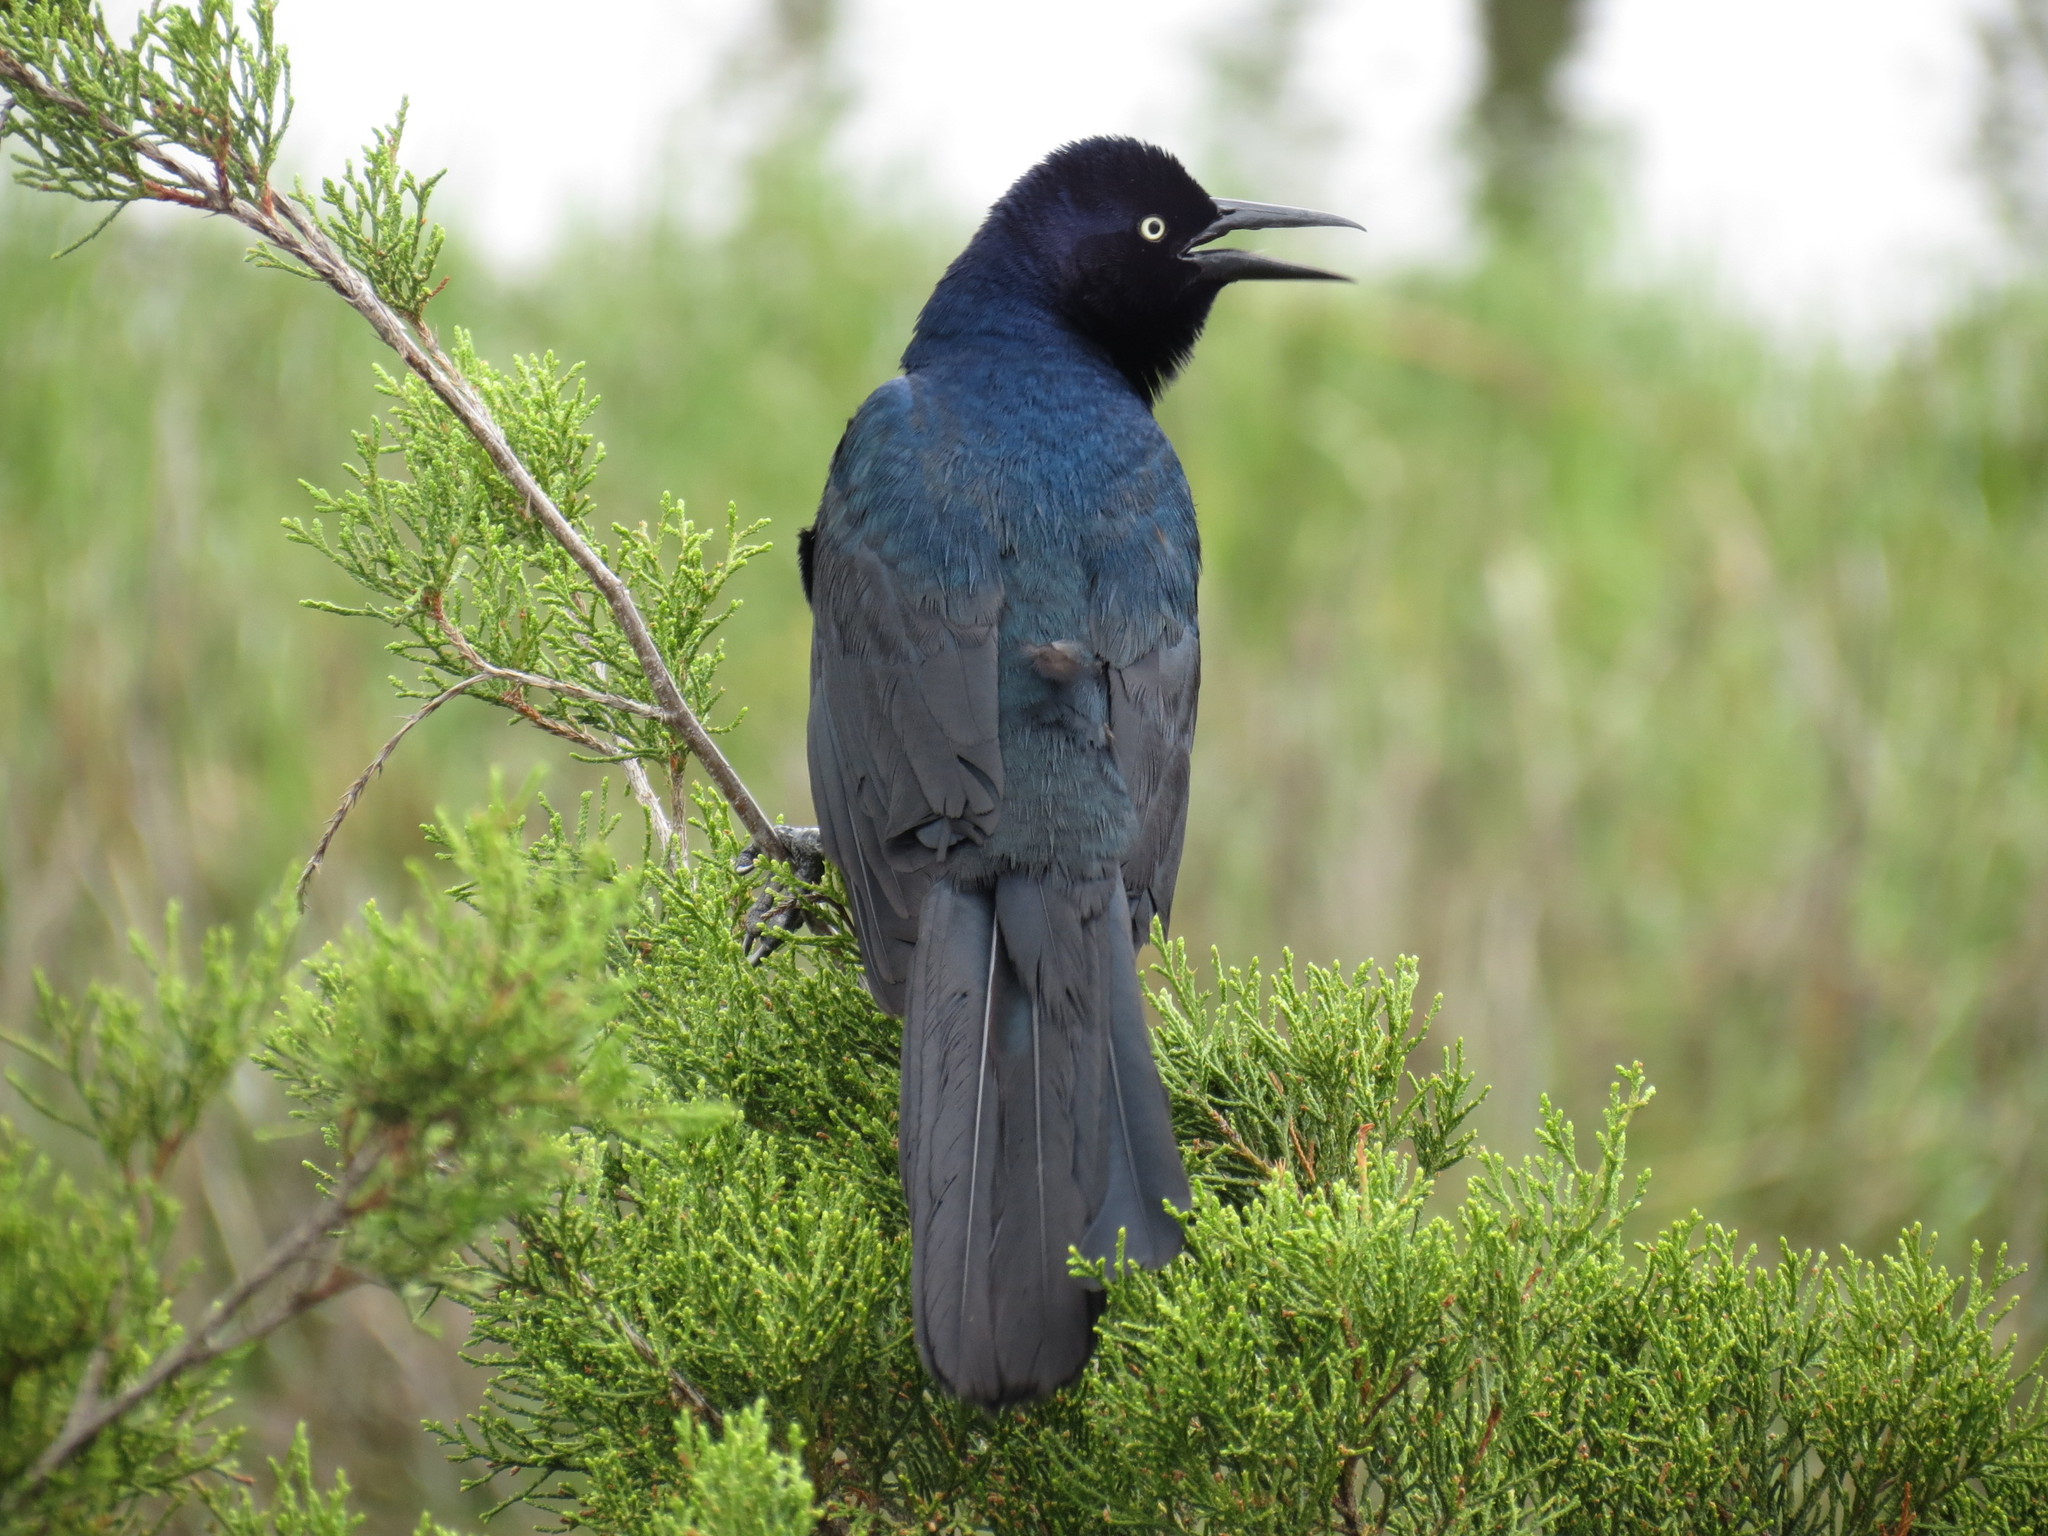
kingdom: Animalia
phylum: Chordata
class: Aves
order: Passeriformes
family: Icteridae
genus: Quiscalus
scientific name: Quiscalus major
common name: Boat-tailed grackle
